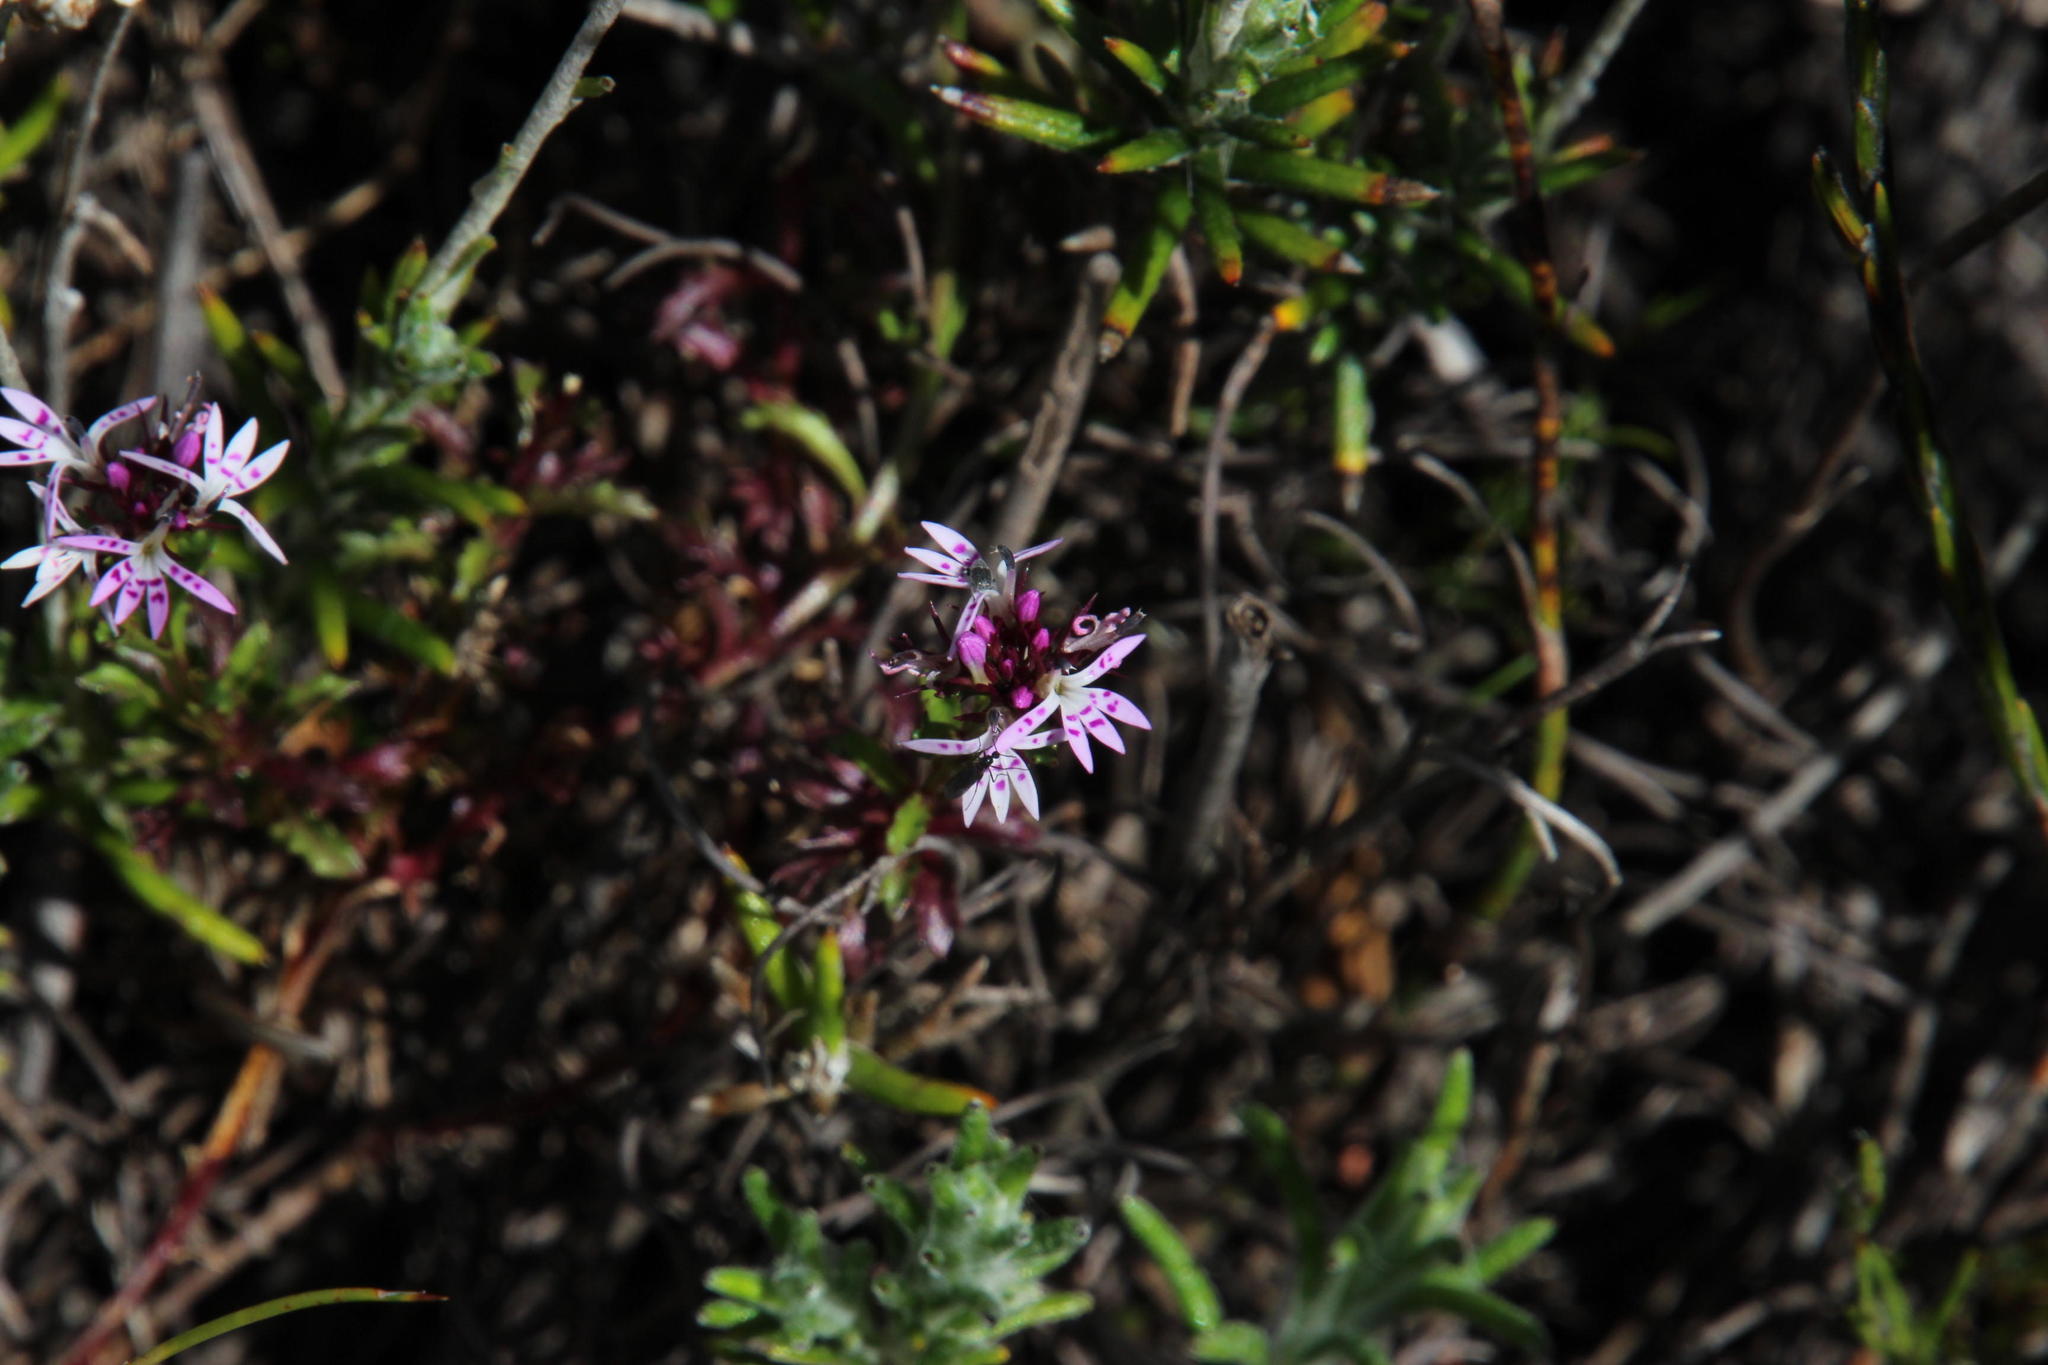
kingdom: Plantae
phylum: Tracheophyta
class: Magnoliopsida
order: Asterales
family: Campanulaceae
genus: Lobelia
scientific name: Lobelia jasionoides
